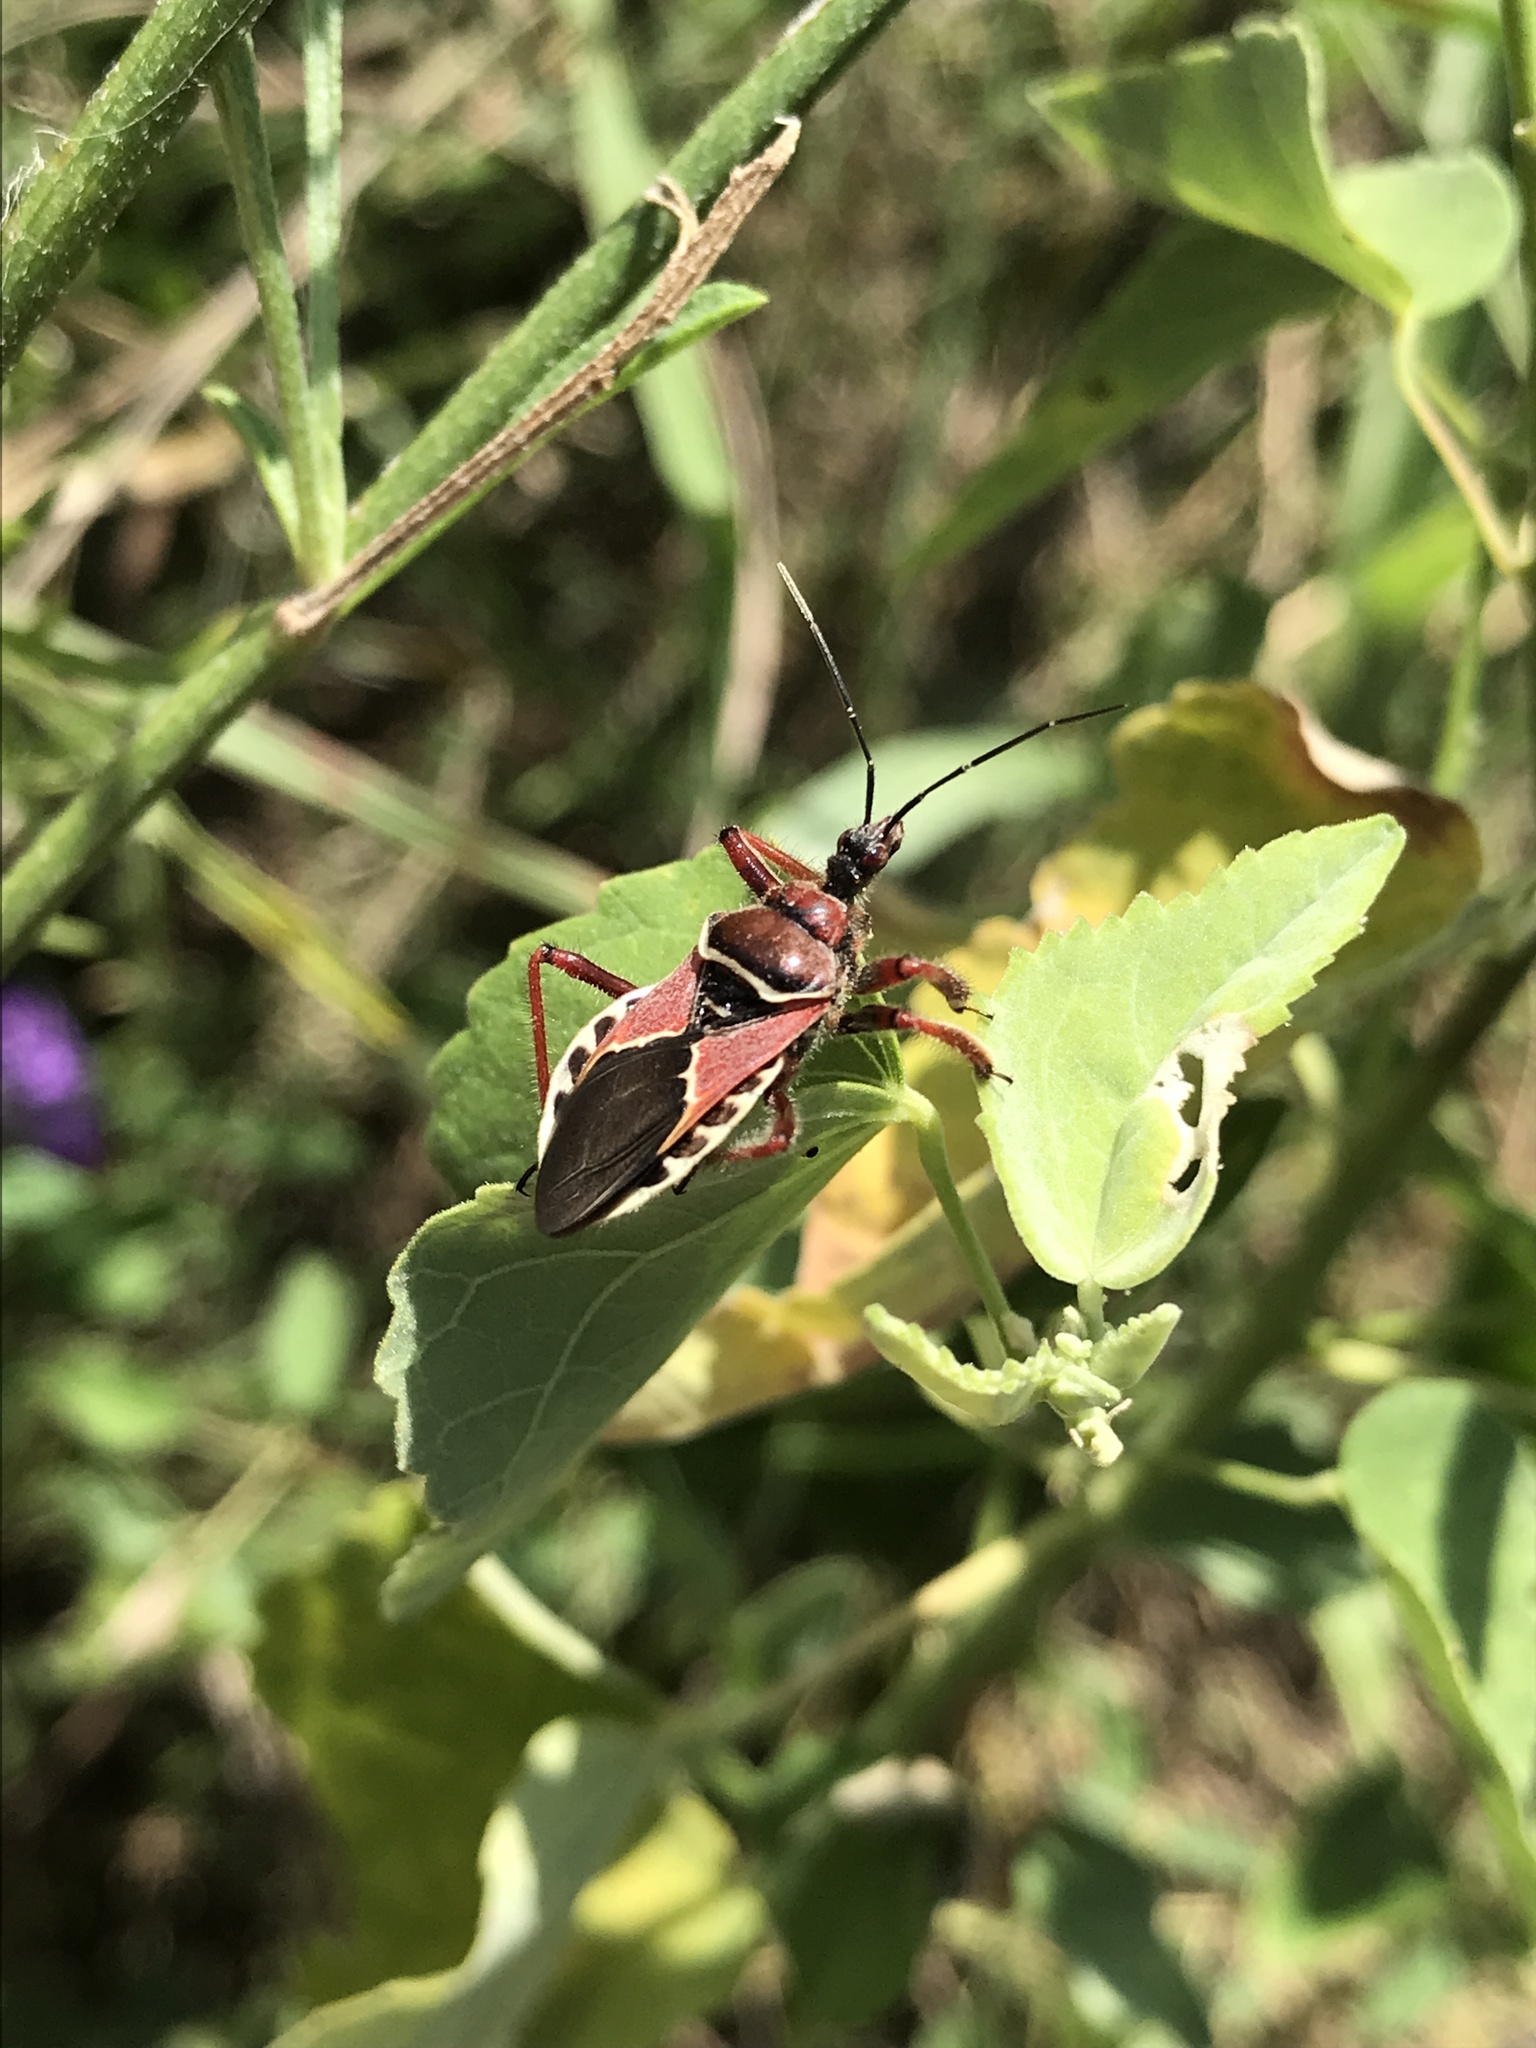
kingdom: Animalia
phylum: Arthropoda
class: Insecta
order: Hemiptera
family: Reduviidae
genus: Apiomerus
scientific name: Apiomerus spissipes
